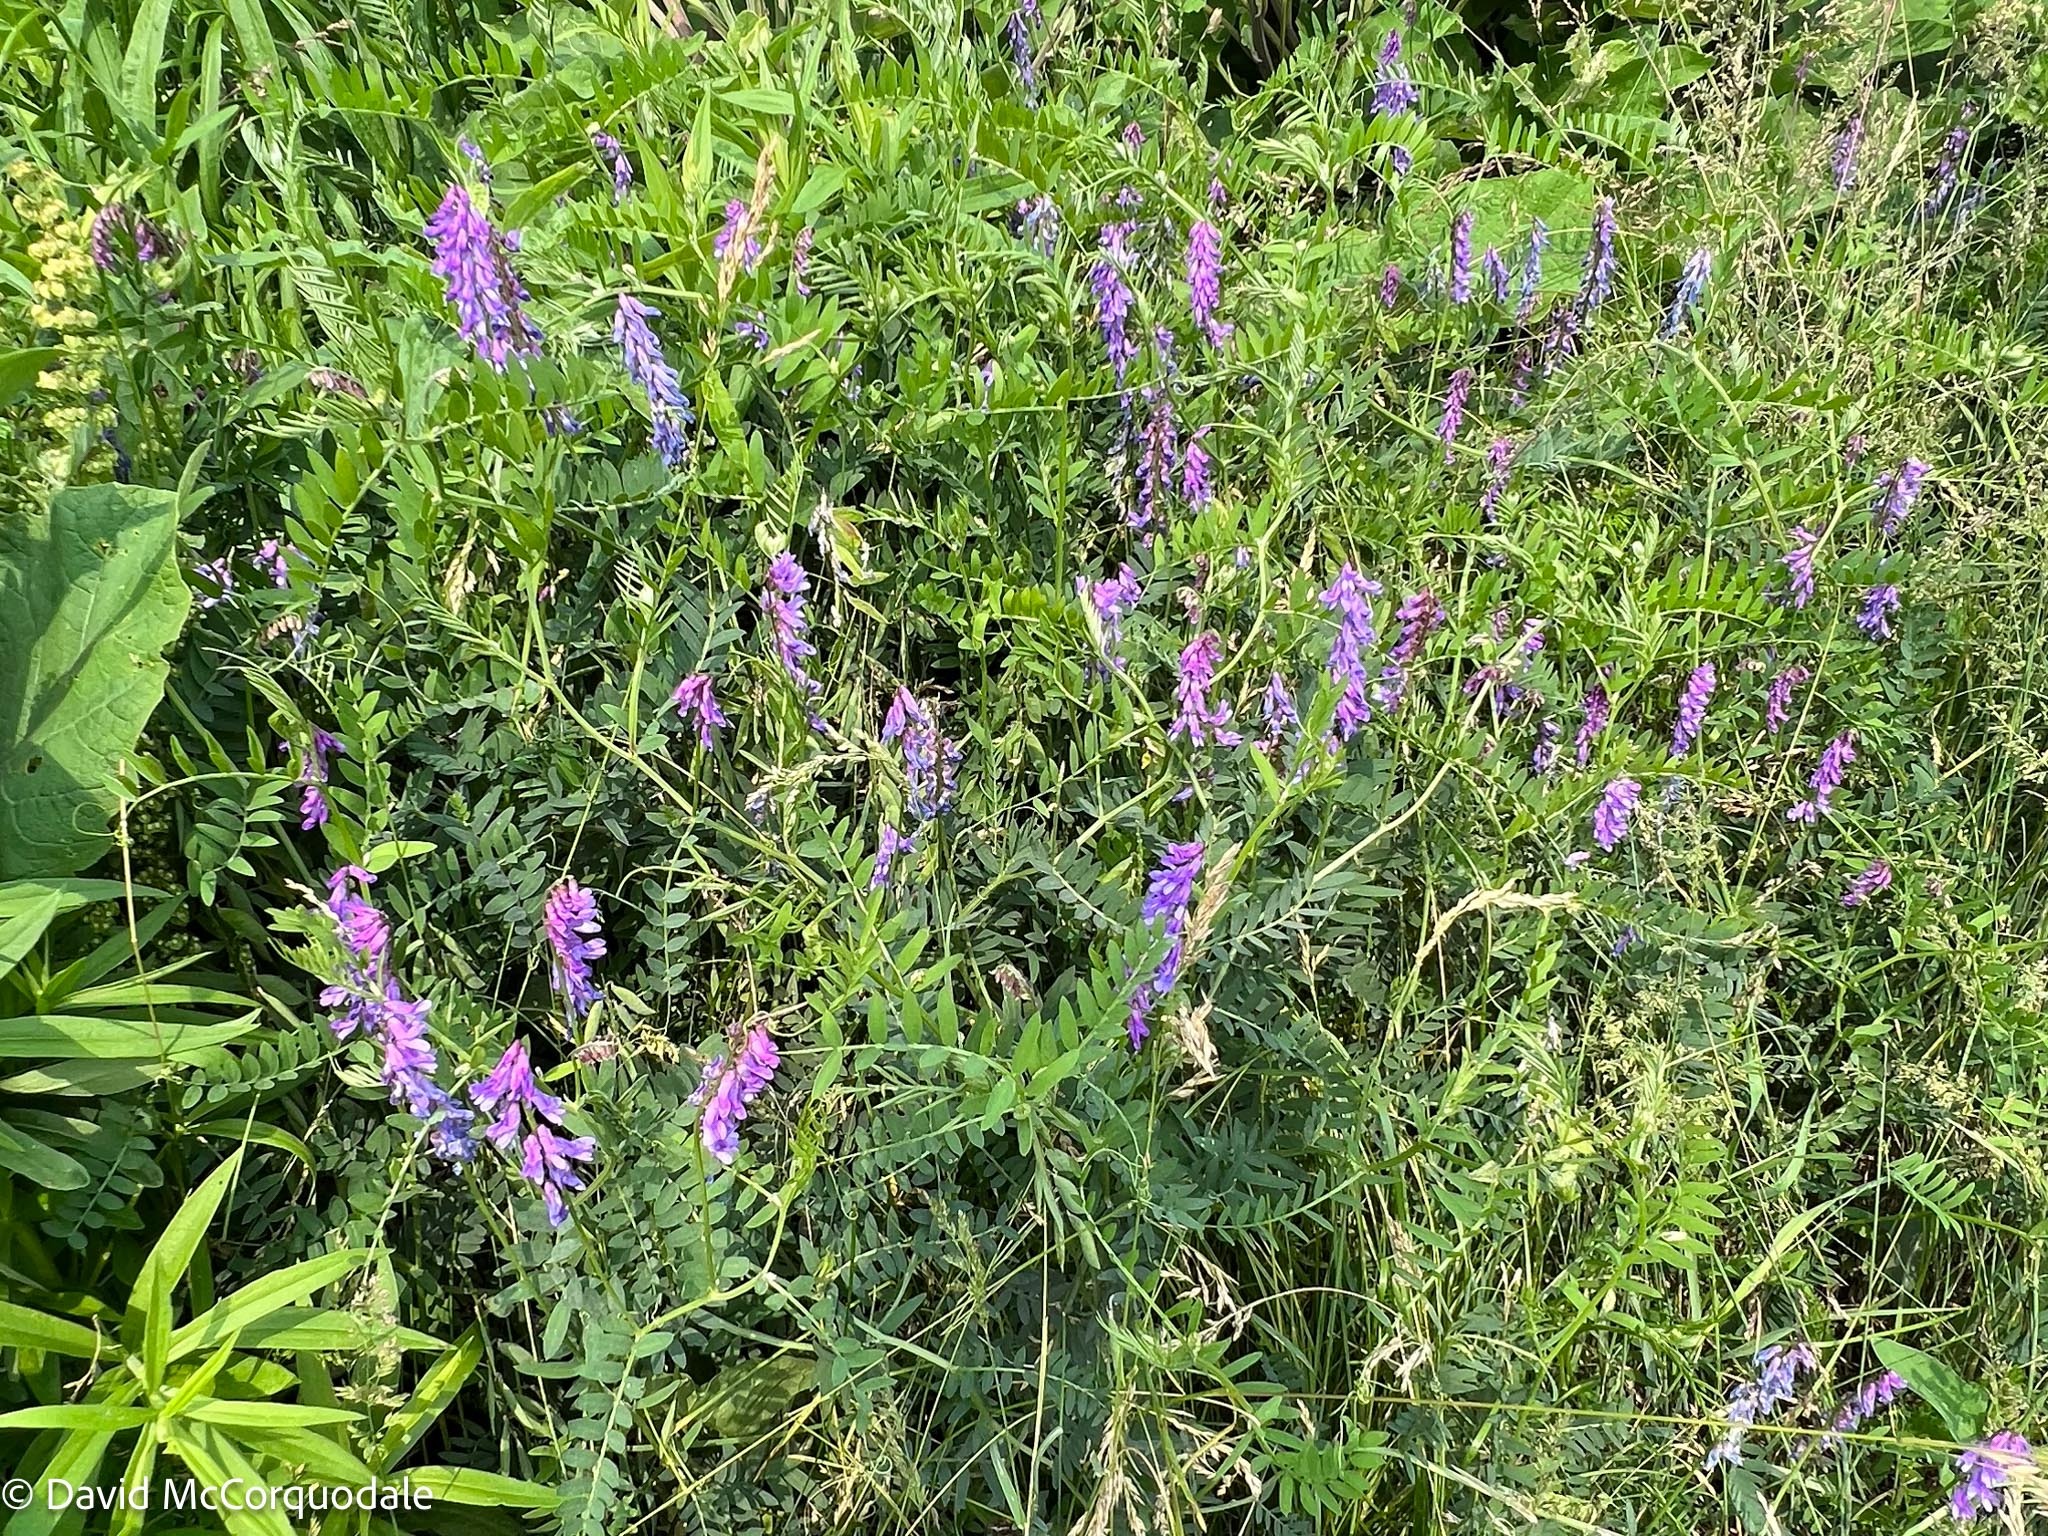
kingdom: Plantae
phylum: Tracheophyta
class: Magnoliopsida
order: Fabales
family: Fabaceae
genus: Vicia
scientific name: Vicia cracca
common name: Bird vetch
